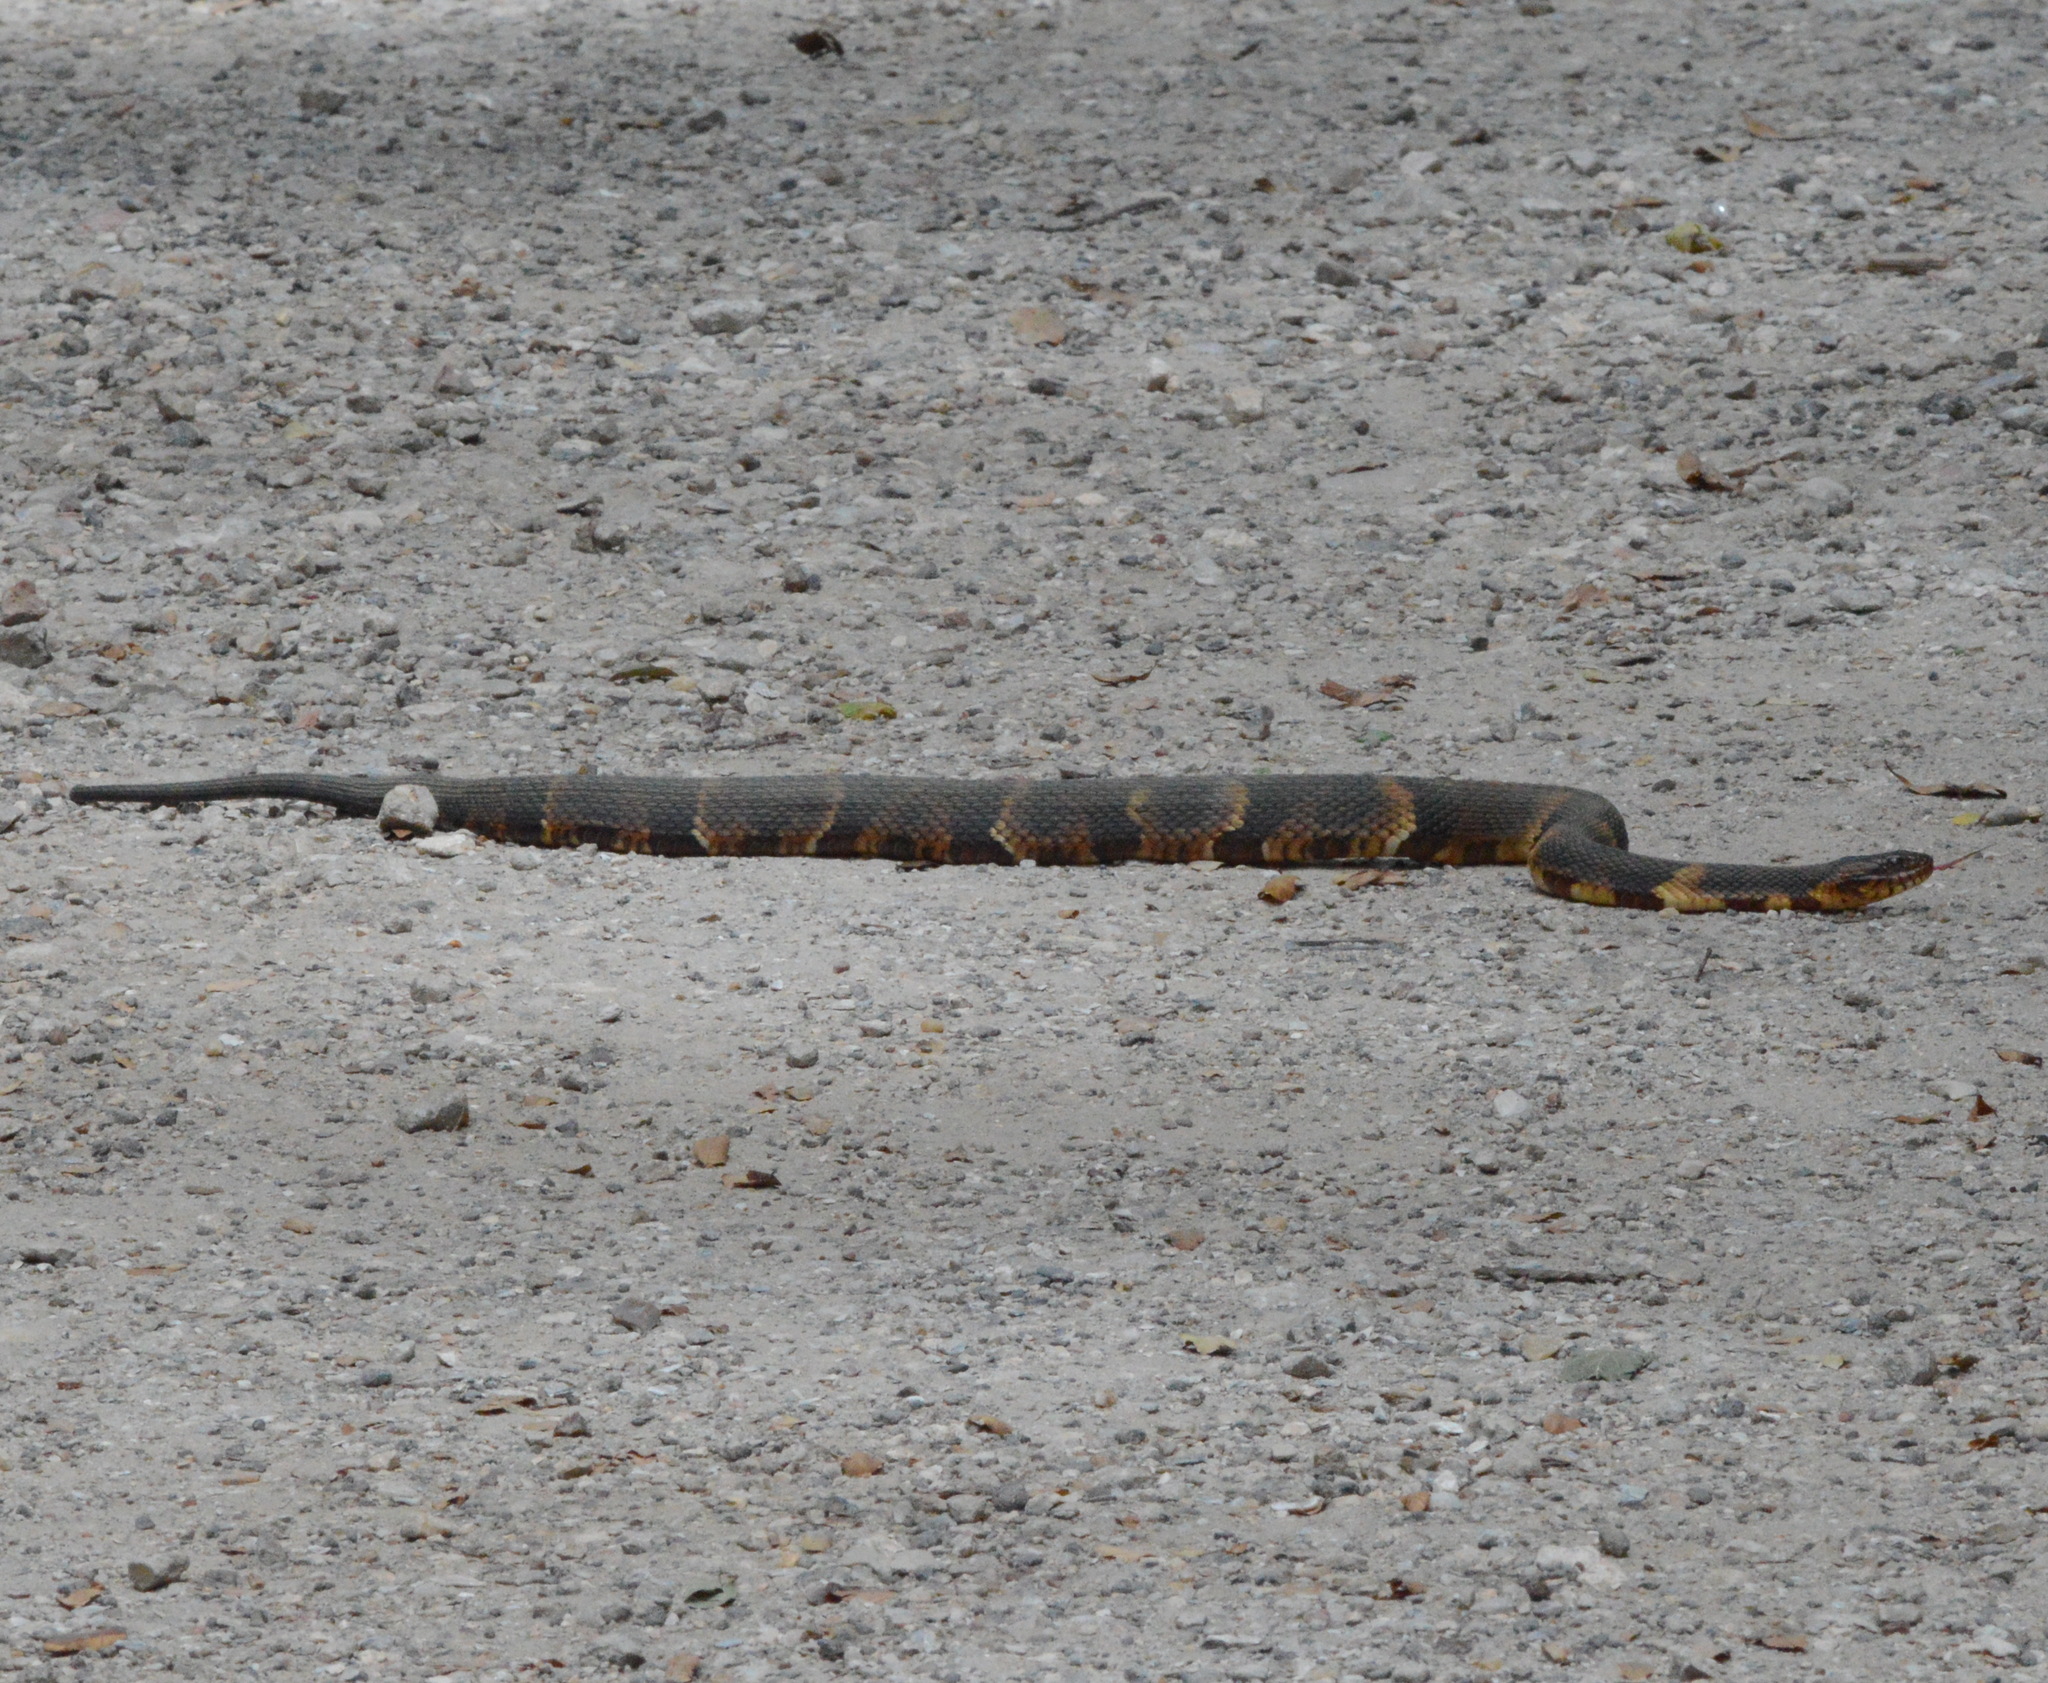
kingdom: Animalia
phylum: Chordata
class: Squamata
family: Colubridae
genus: Nerodia
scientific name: Nerodia fasciata
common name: Southern water snake
